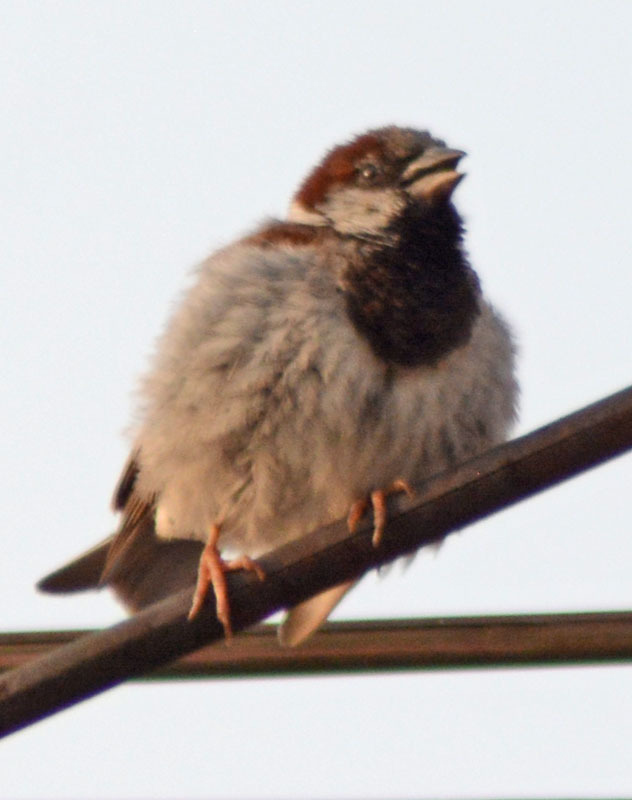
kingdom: Animalia
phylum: Chordata
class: Aves
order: Passeriformes
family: Passeridae
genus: Passer
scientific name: Passer domesticus
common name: House sparrow
